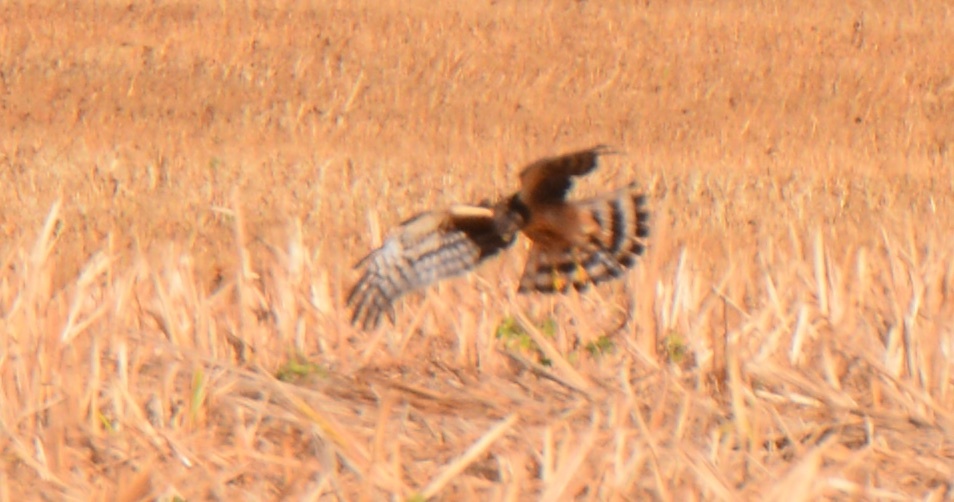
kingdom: Animalia
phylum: Chordata
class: Aves
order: Accipitriformes
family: Accipitridae
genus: Circus
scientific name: Circus cyaneus
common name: Hen harrier
